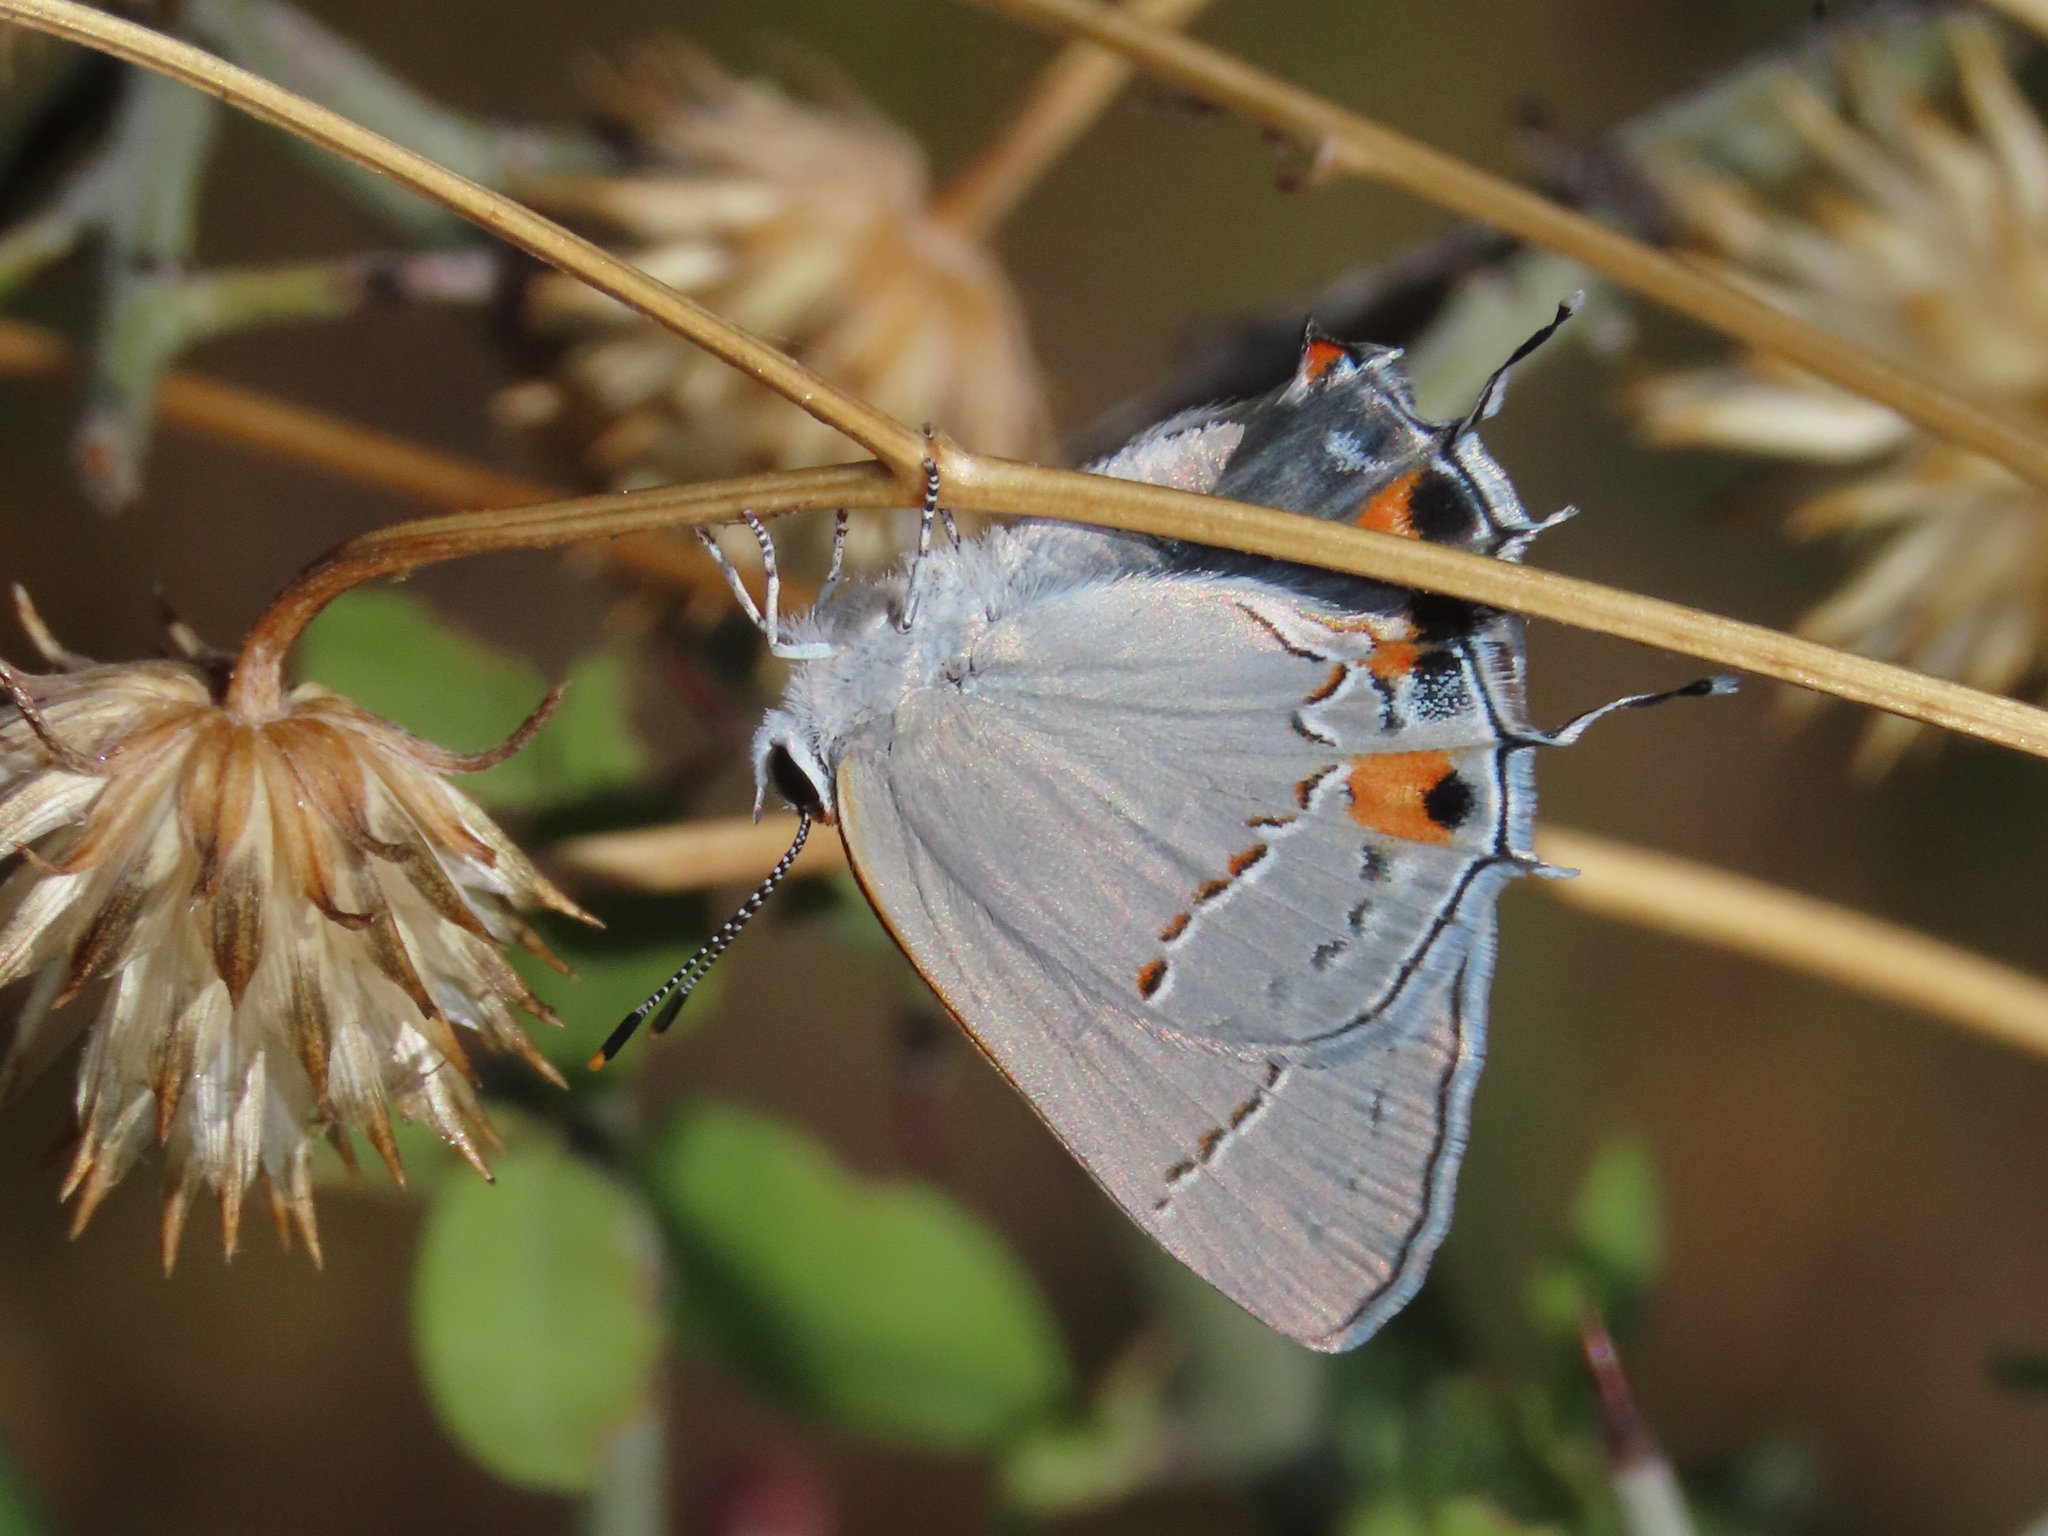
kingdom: Animalia
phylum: Arthropoda
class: Insecta
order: Lepidoptera
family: Lycaenidae
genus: Strymon
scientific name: Strymon melinus
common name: Gray hairstreak
